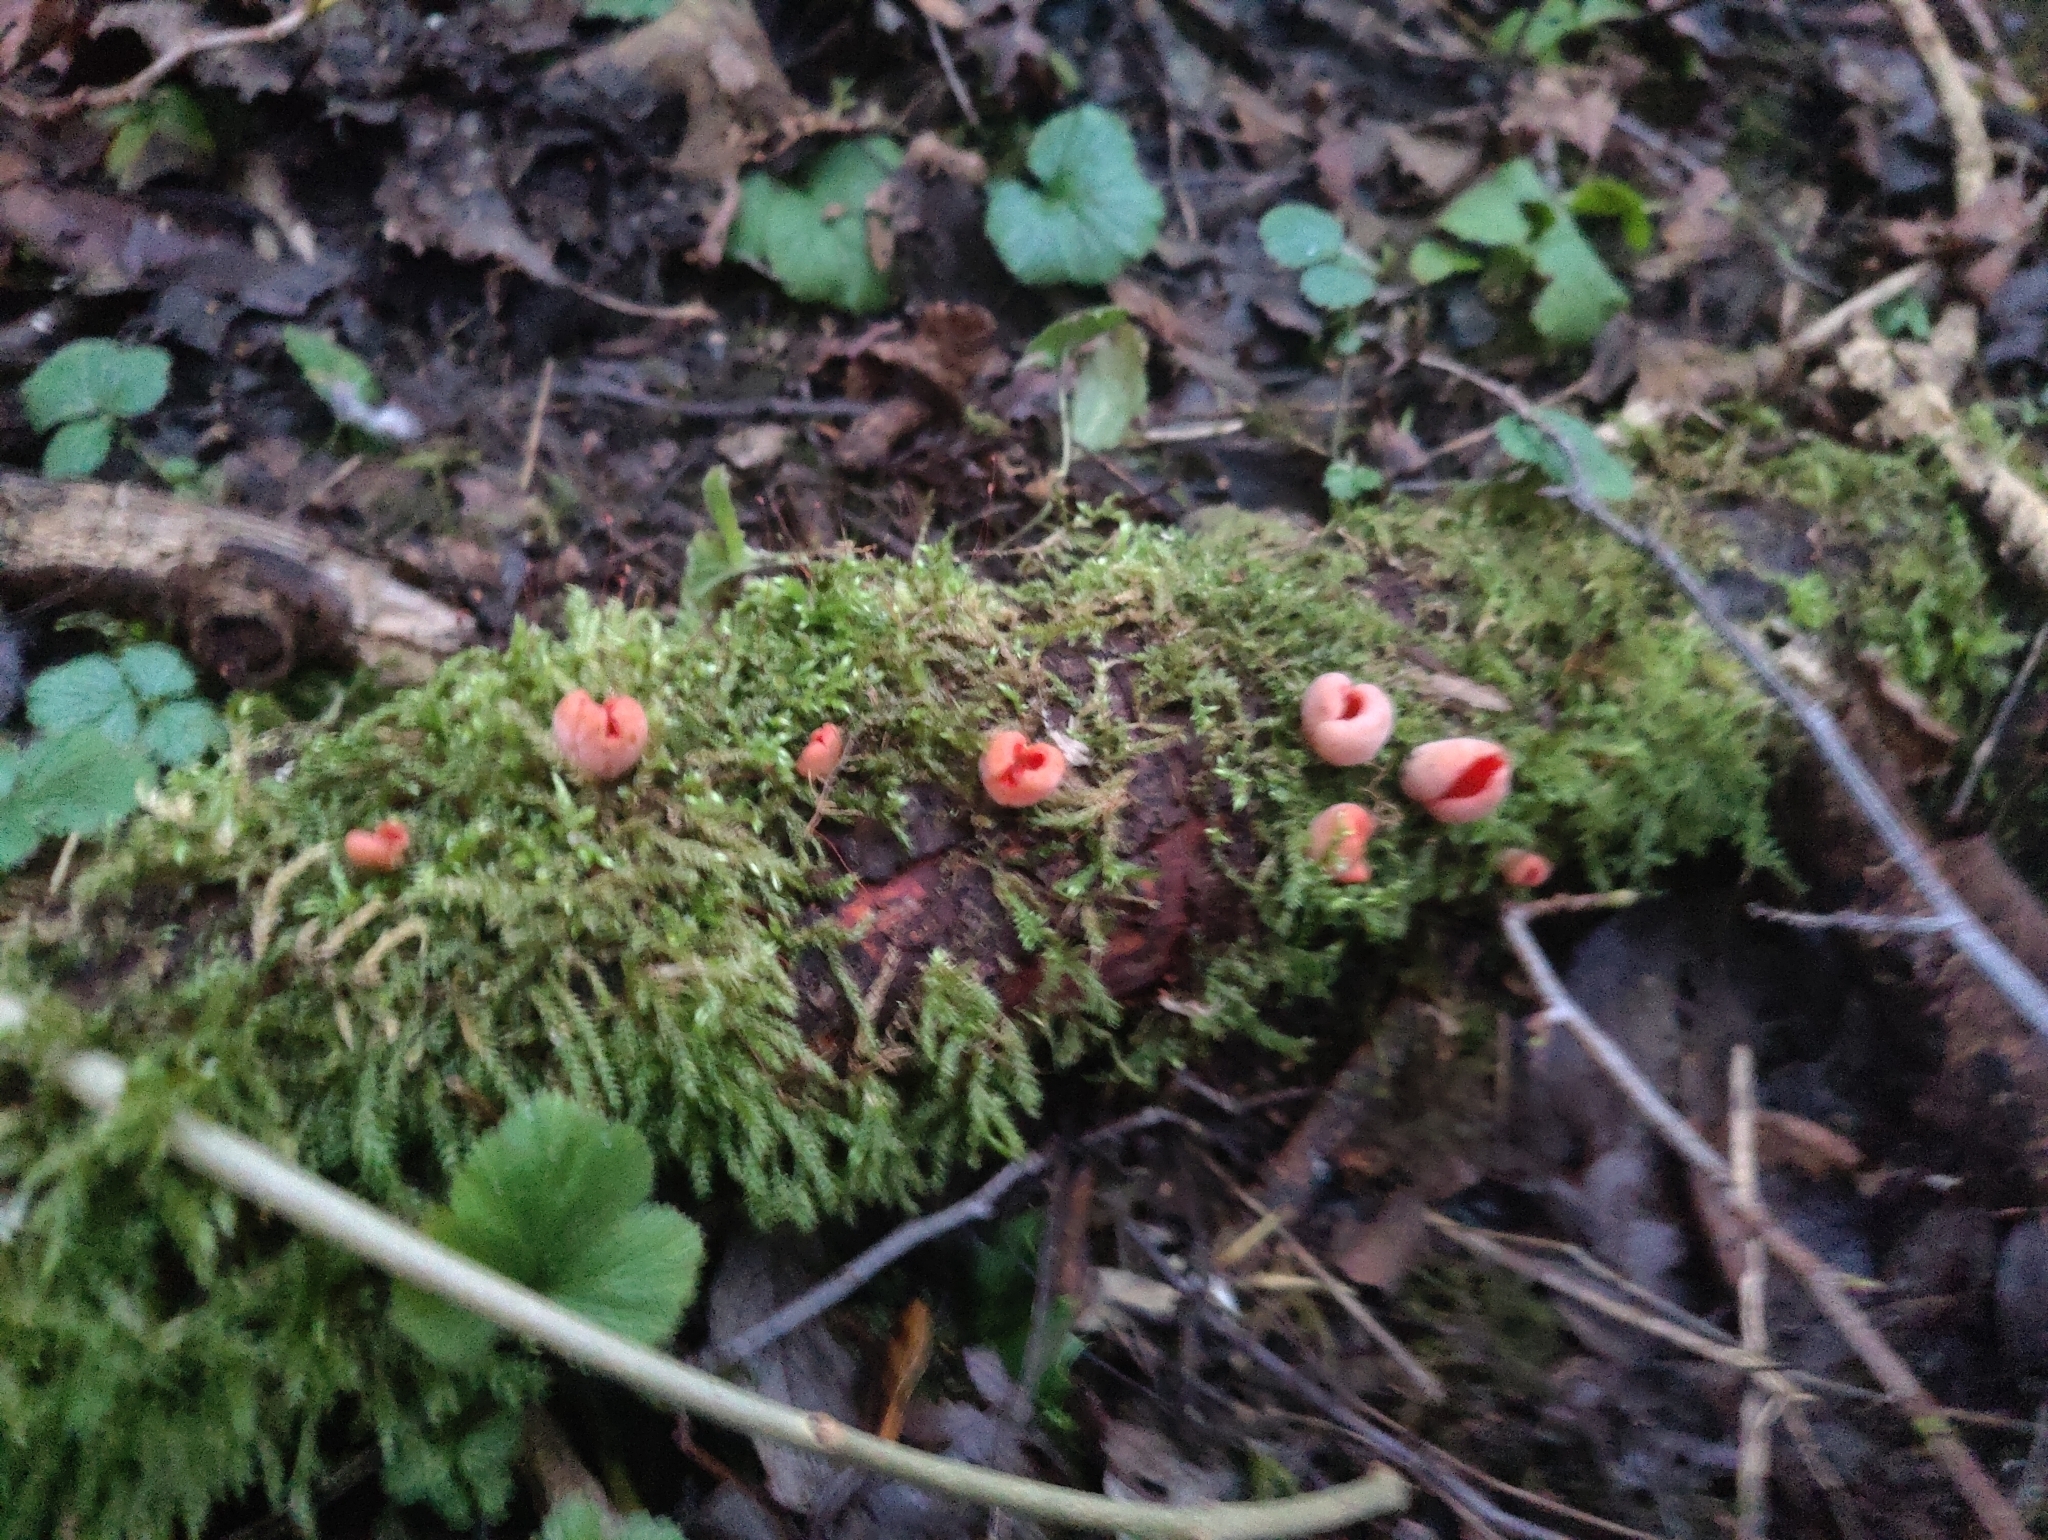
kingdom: Fungi
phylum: Ascomycota
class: Pezizomycetes
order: Pezizales
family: Sarcoscyphaceae
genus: Sarcoscypha
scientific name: Sarcoscypha
